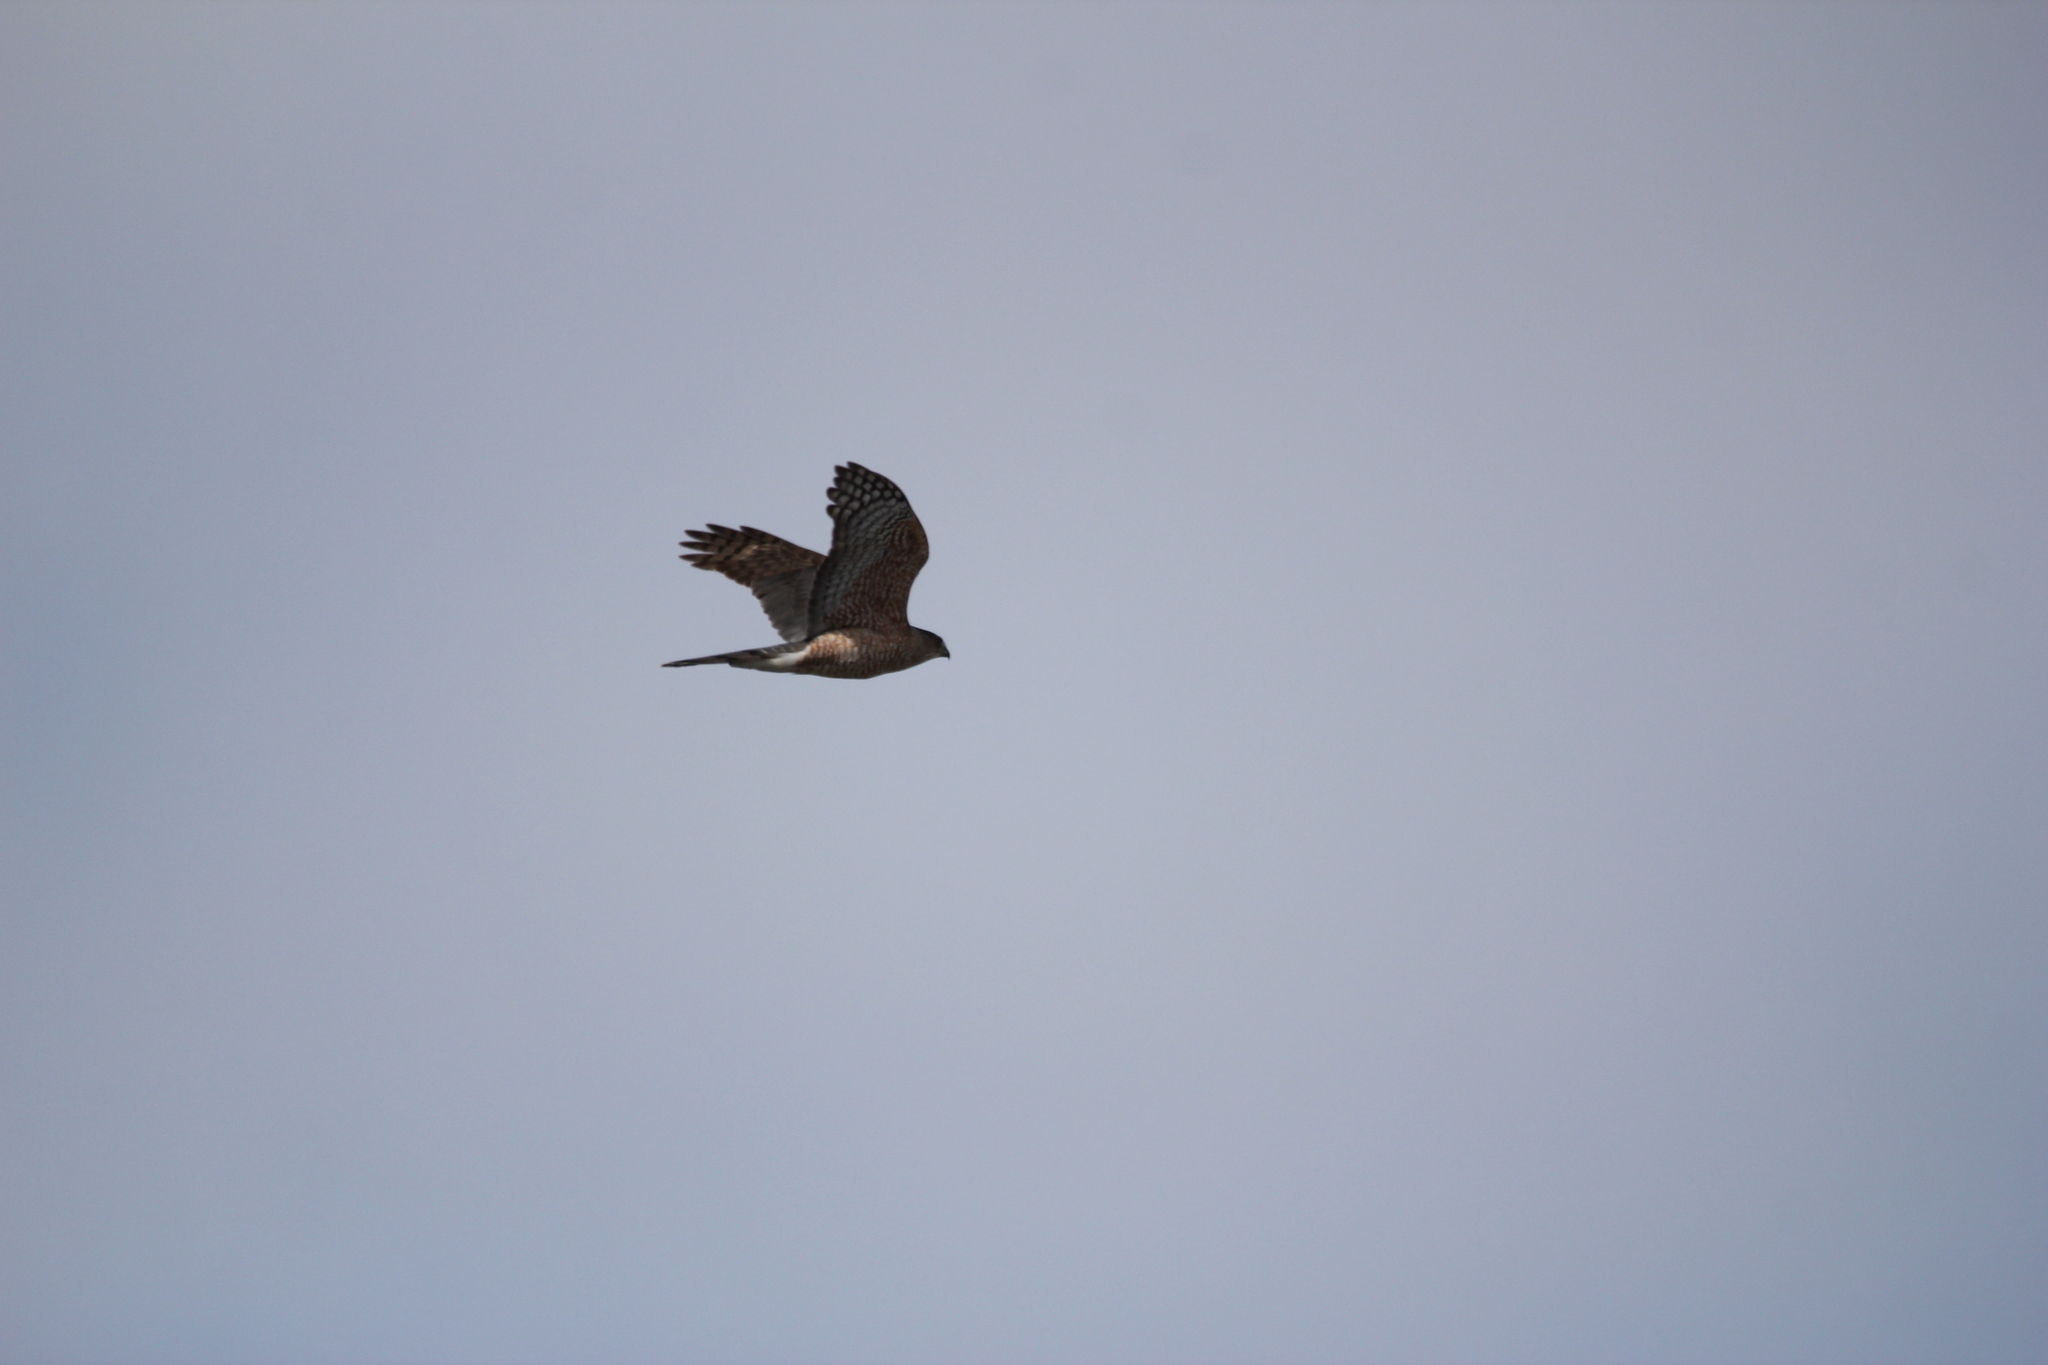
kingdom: Animalia
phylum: Chordata
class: Aves
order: Accipitriformes
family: Accipitridae
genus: Accipiter
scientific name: Accipiter cooperii
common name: Cooper's hawk
